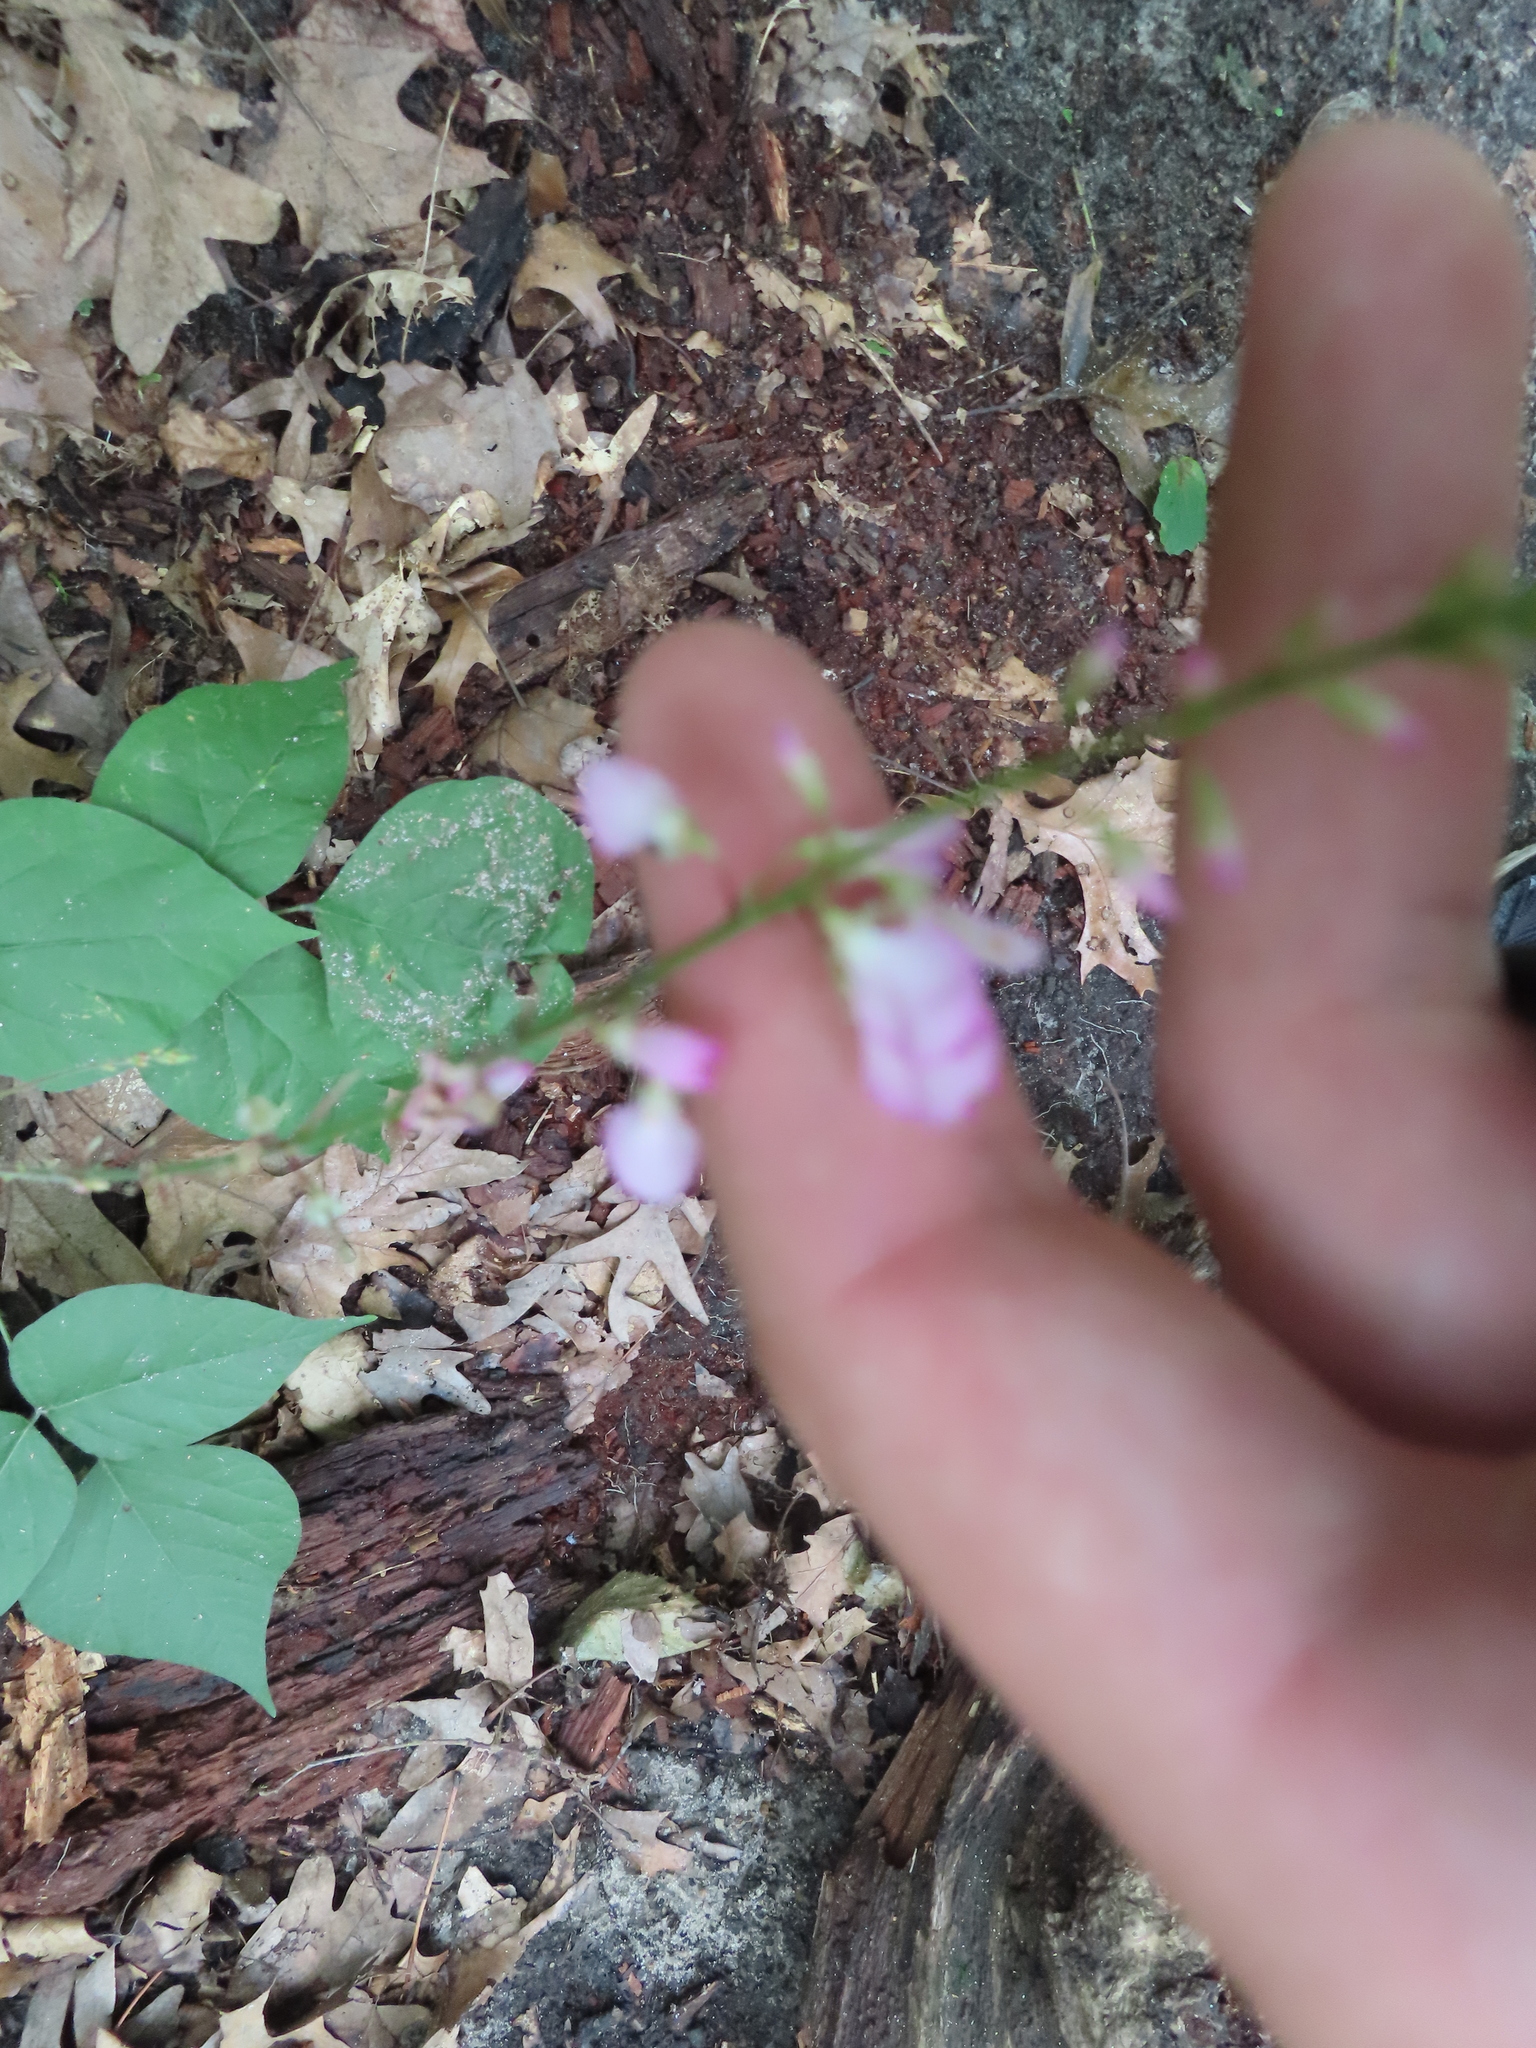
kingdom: Plantae
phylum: Tracheophyta
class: Magnoliopsida
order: Fabales
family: Fabaceae
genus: Hylodesmum
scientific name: Hylodesmum glutinosum
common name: Clustered-leaved tick-trefoil
